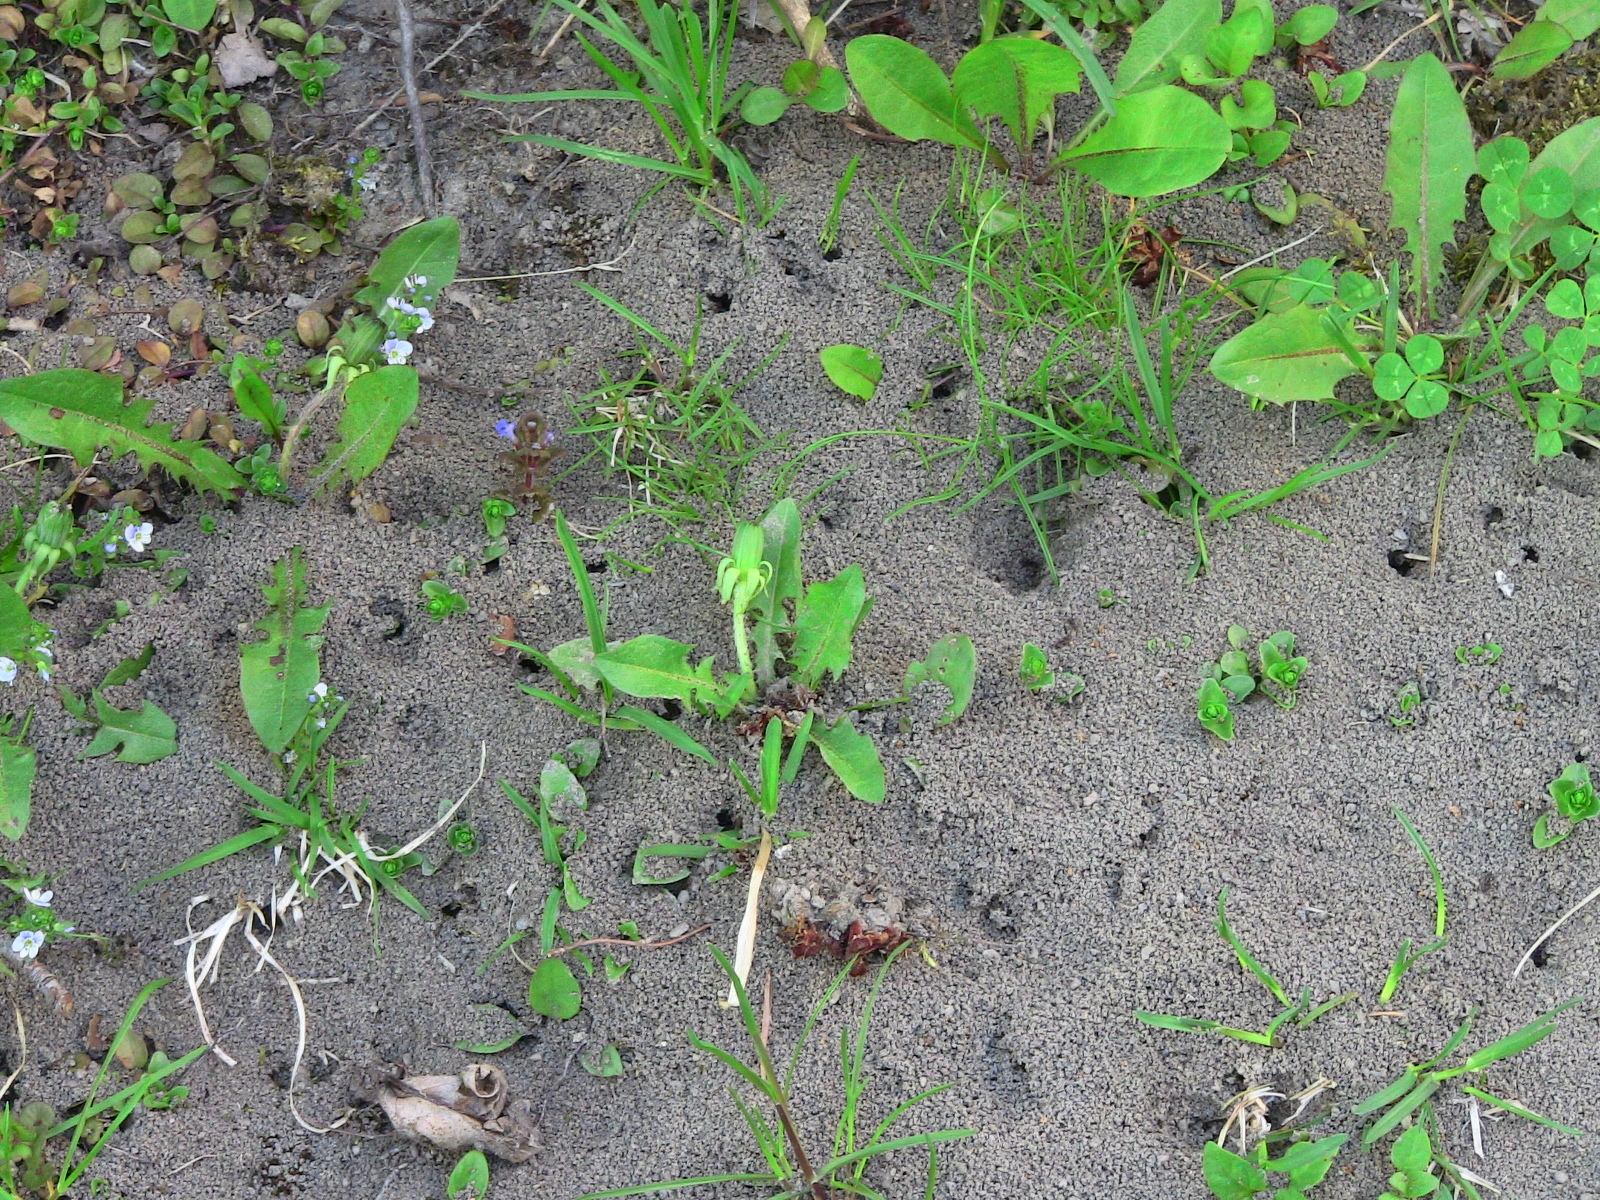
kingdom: Animalia
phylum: Arthropoda
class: Insecta
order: Hymenoptera
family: Formicidae
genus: Camponotus
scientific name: Camponotus pennsylvanicus
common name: Black carpenter ant
